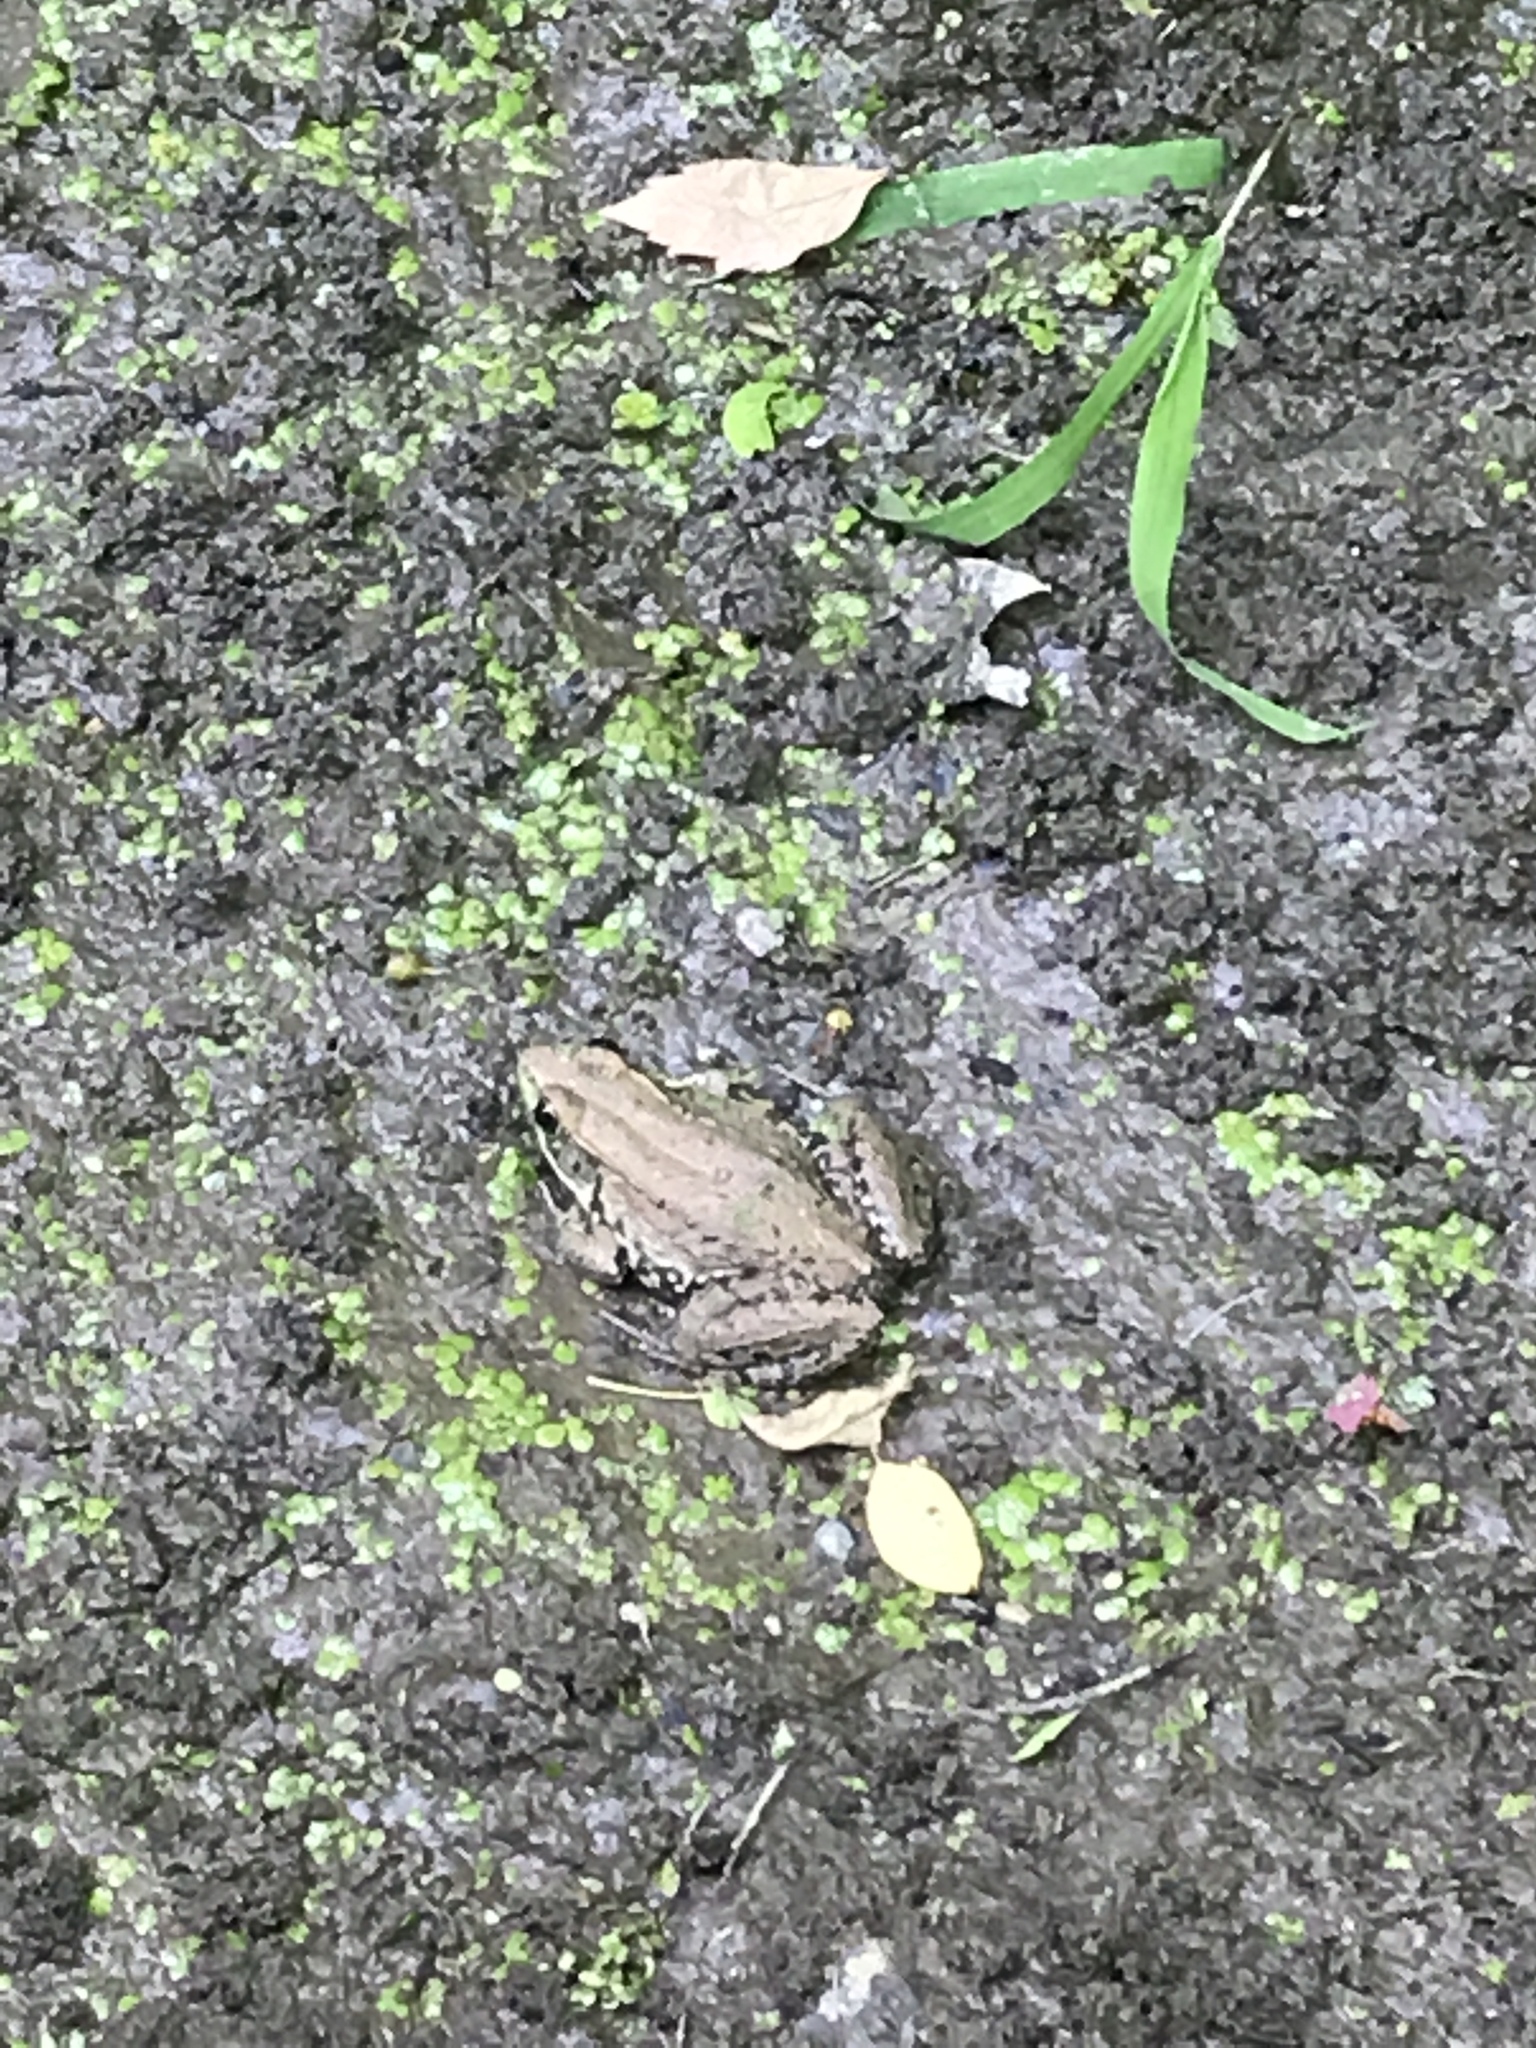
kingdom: Animalia
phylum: Chordata
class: Amphibia
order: Anura
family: Ranidae
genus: Lithobates
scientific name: Lithobates clamitans
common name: Green frog
